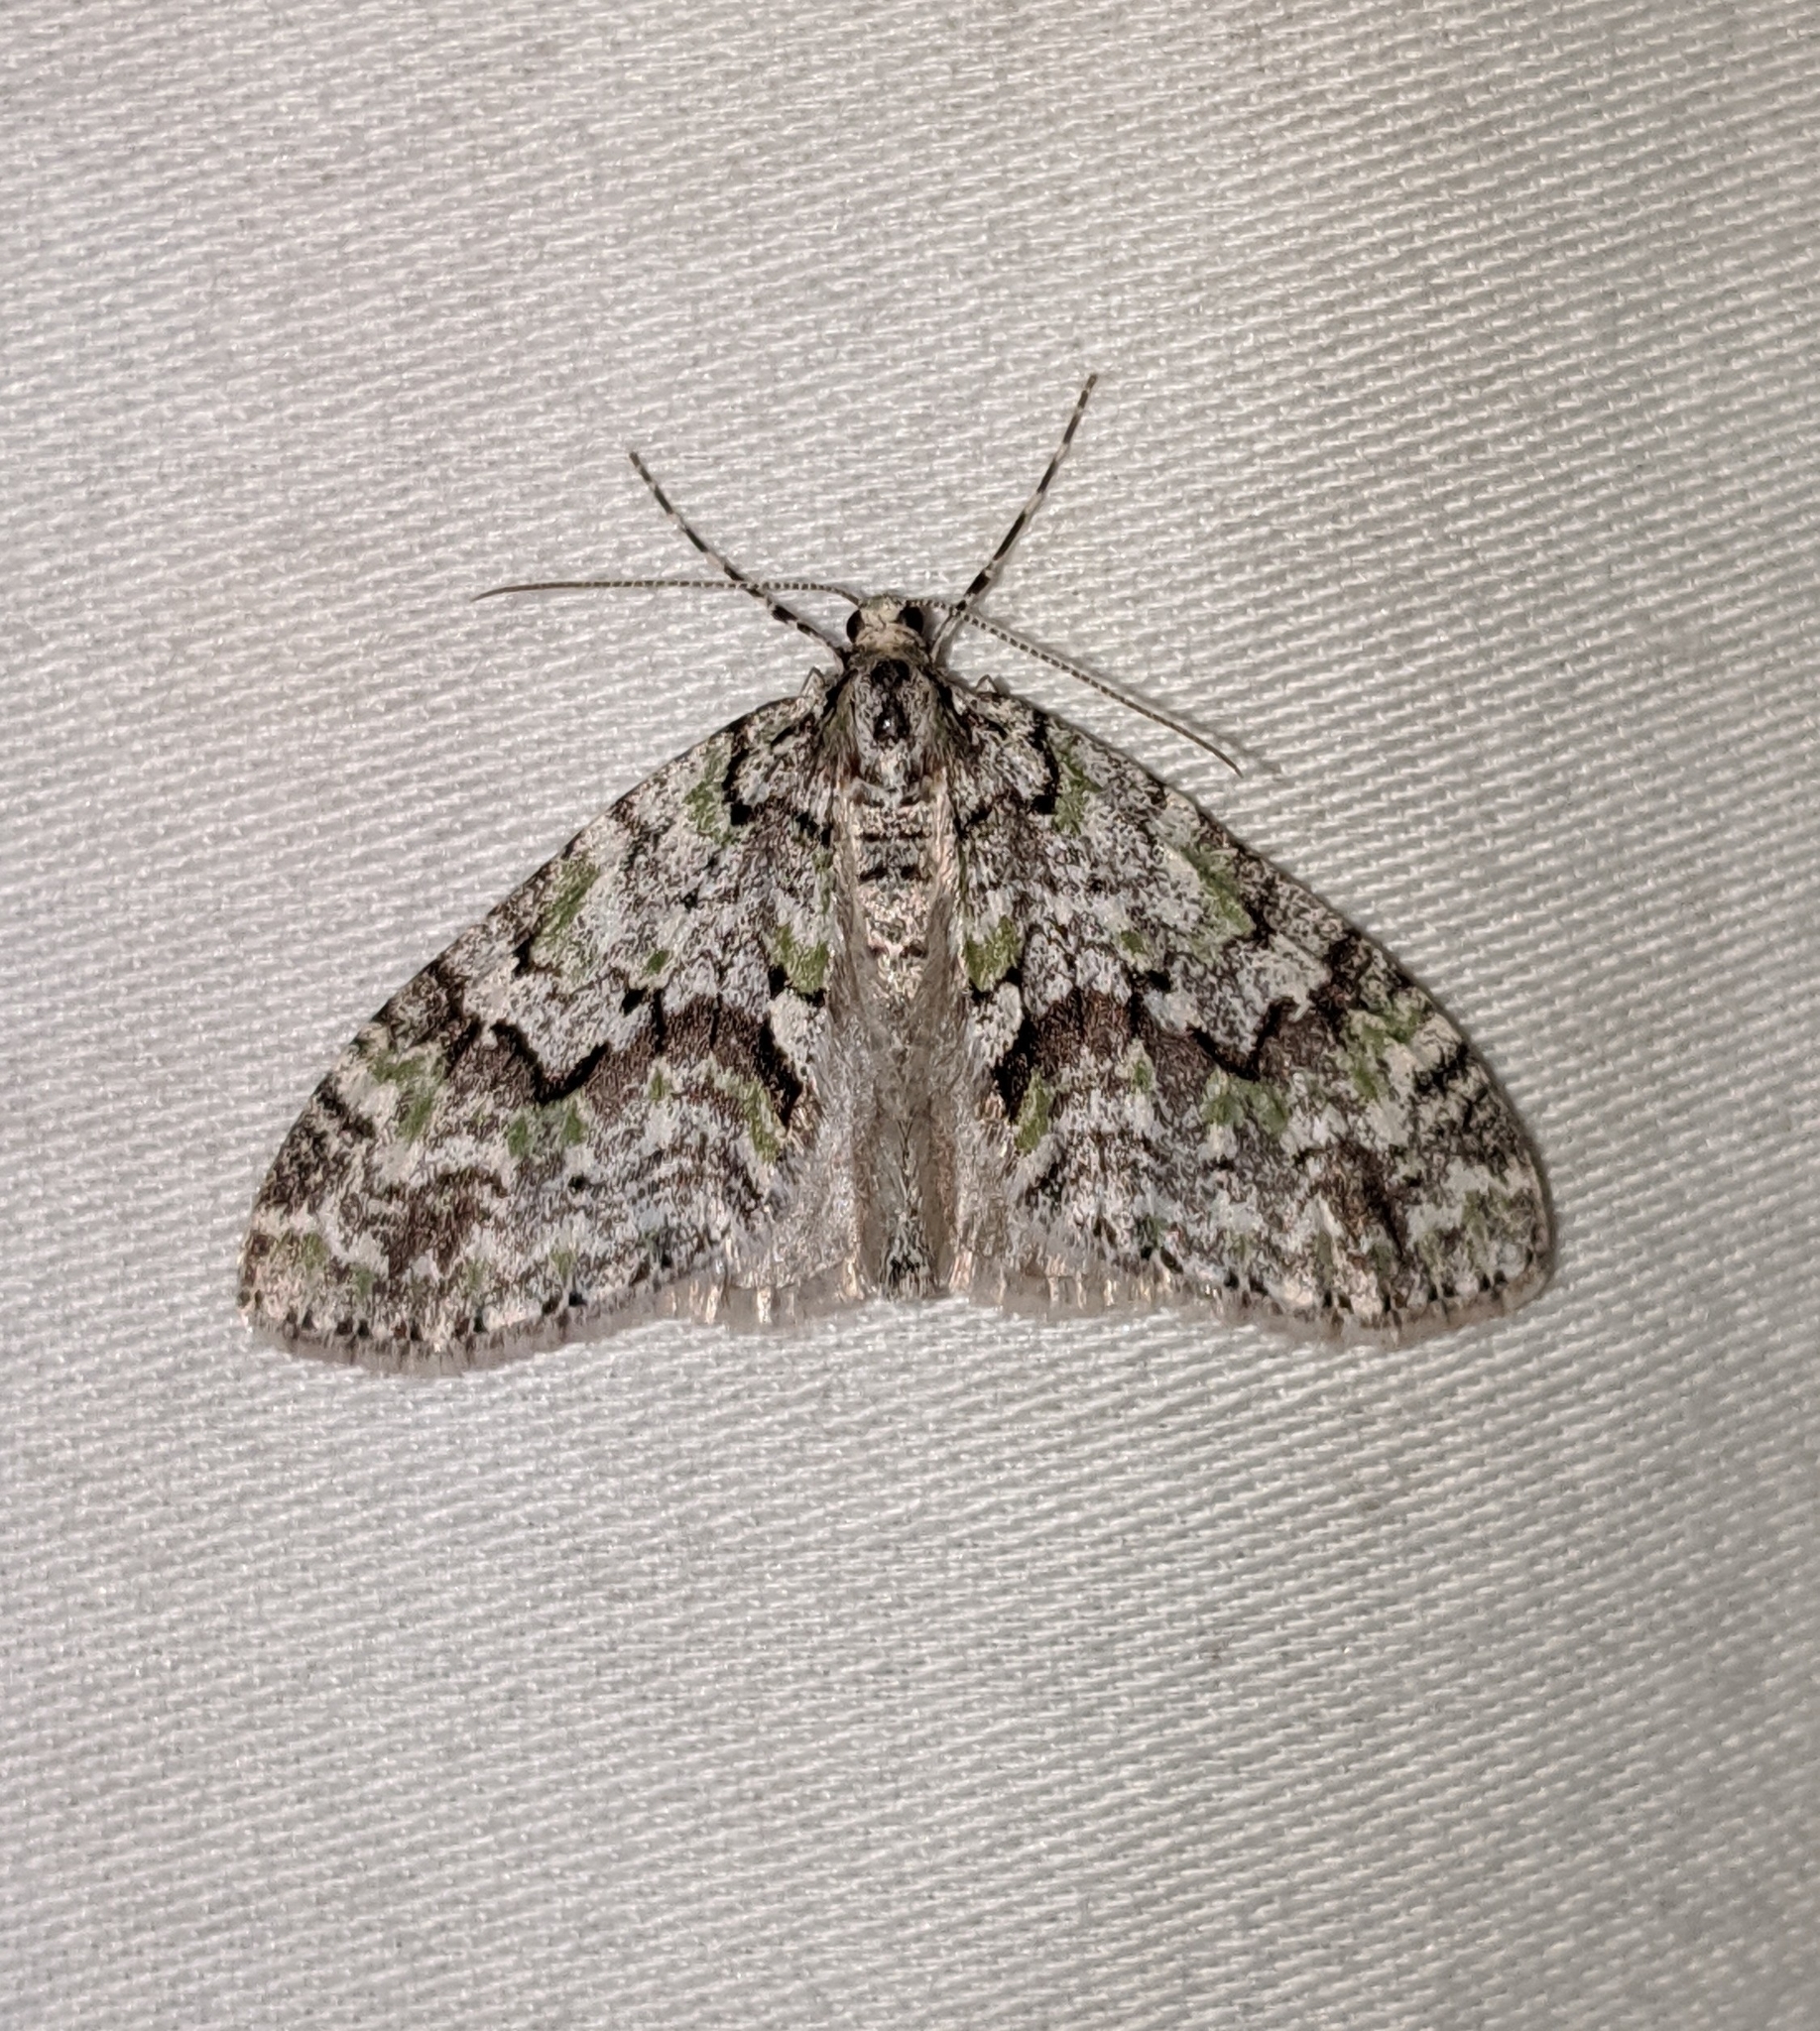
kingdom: Animalia
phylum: Arthropoda
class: Insecta
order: Lepidoptera
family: Geometridae
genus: Cladara
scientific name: Cladara limitaria
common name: Mottled gray carpet
